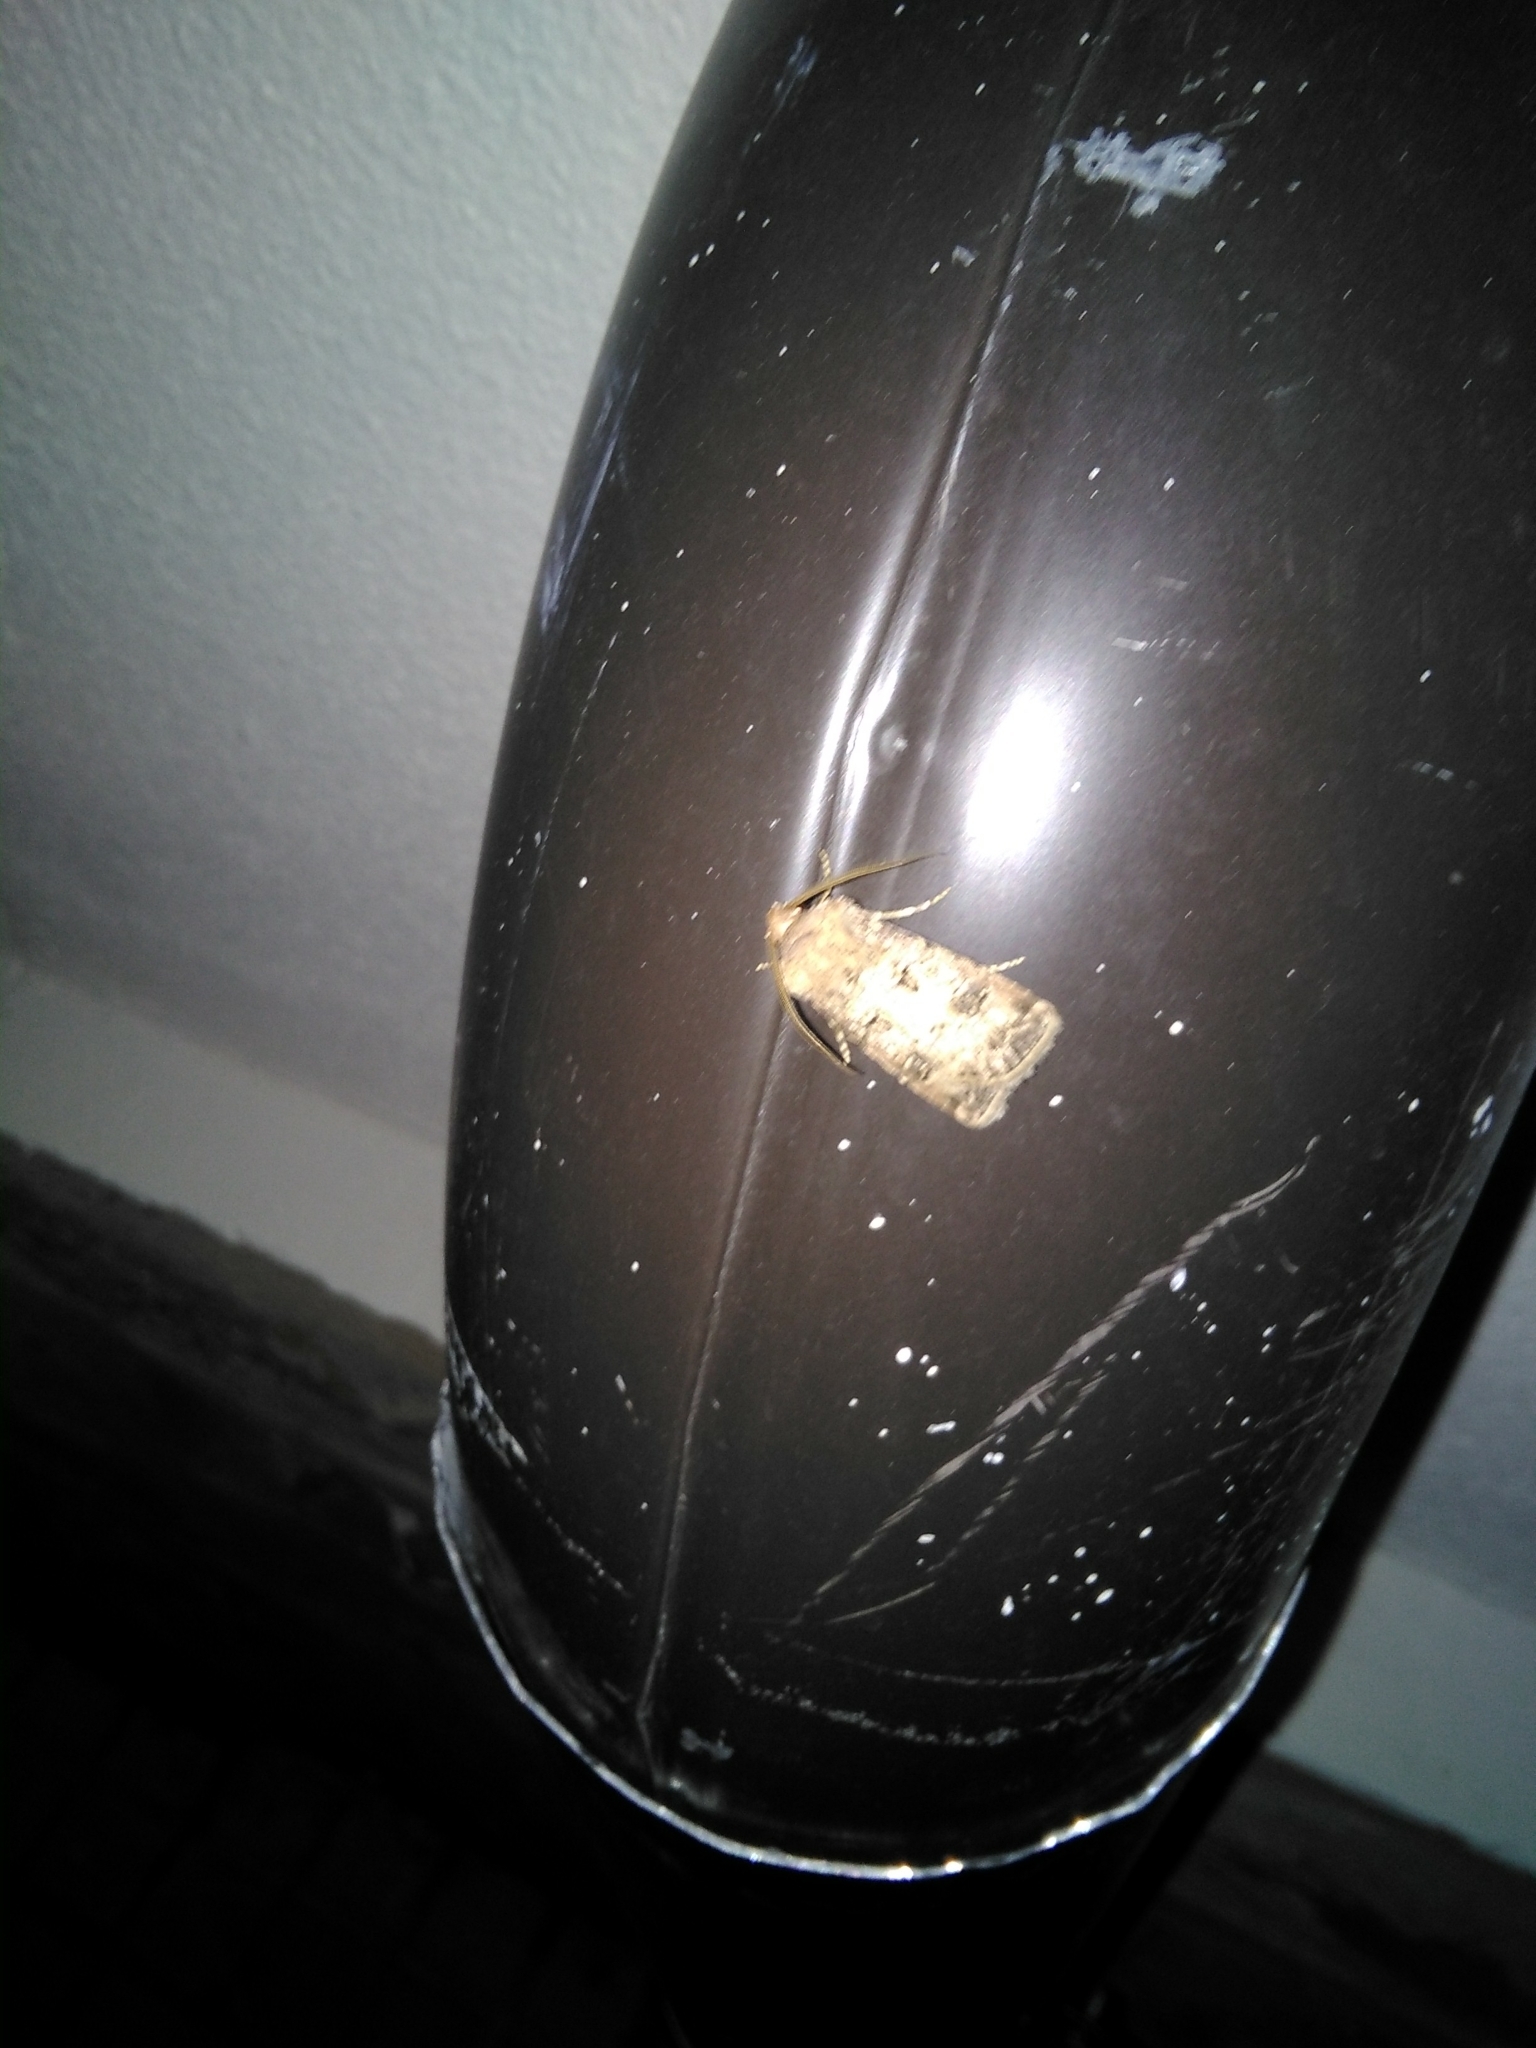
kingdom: Animalia
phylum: Arthropoda
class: Insecta
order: Lepidoptera
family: Noctuidae
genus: Agrotis
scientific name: Agrotis clavis
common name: Heart and club
